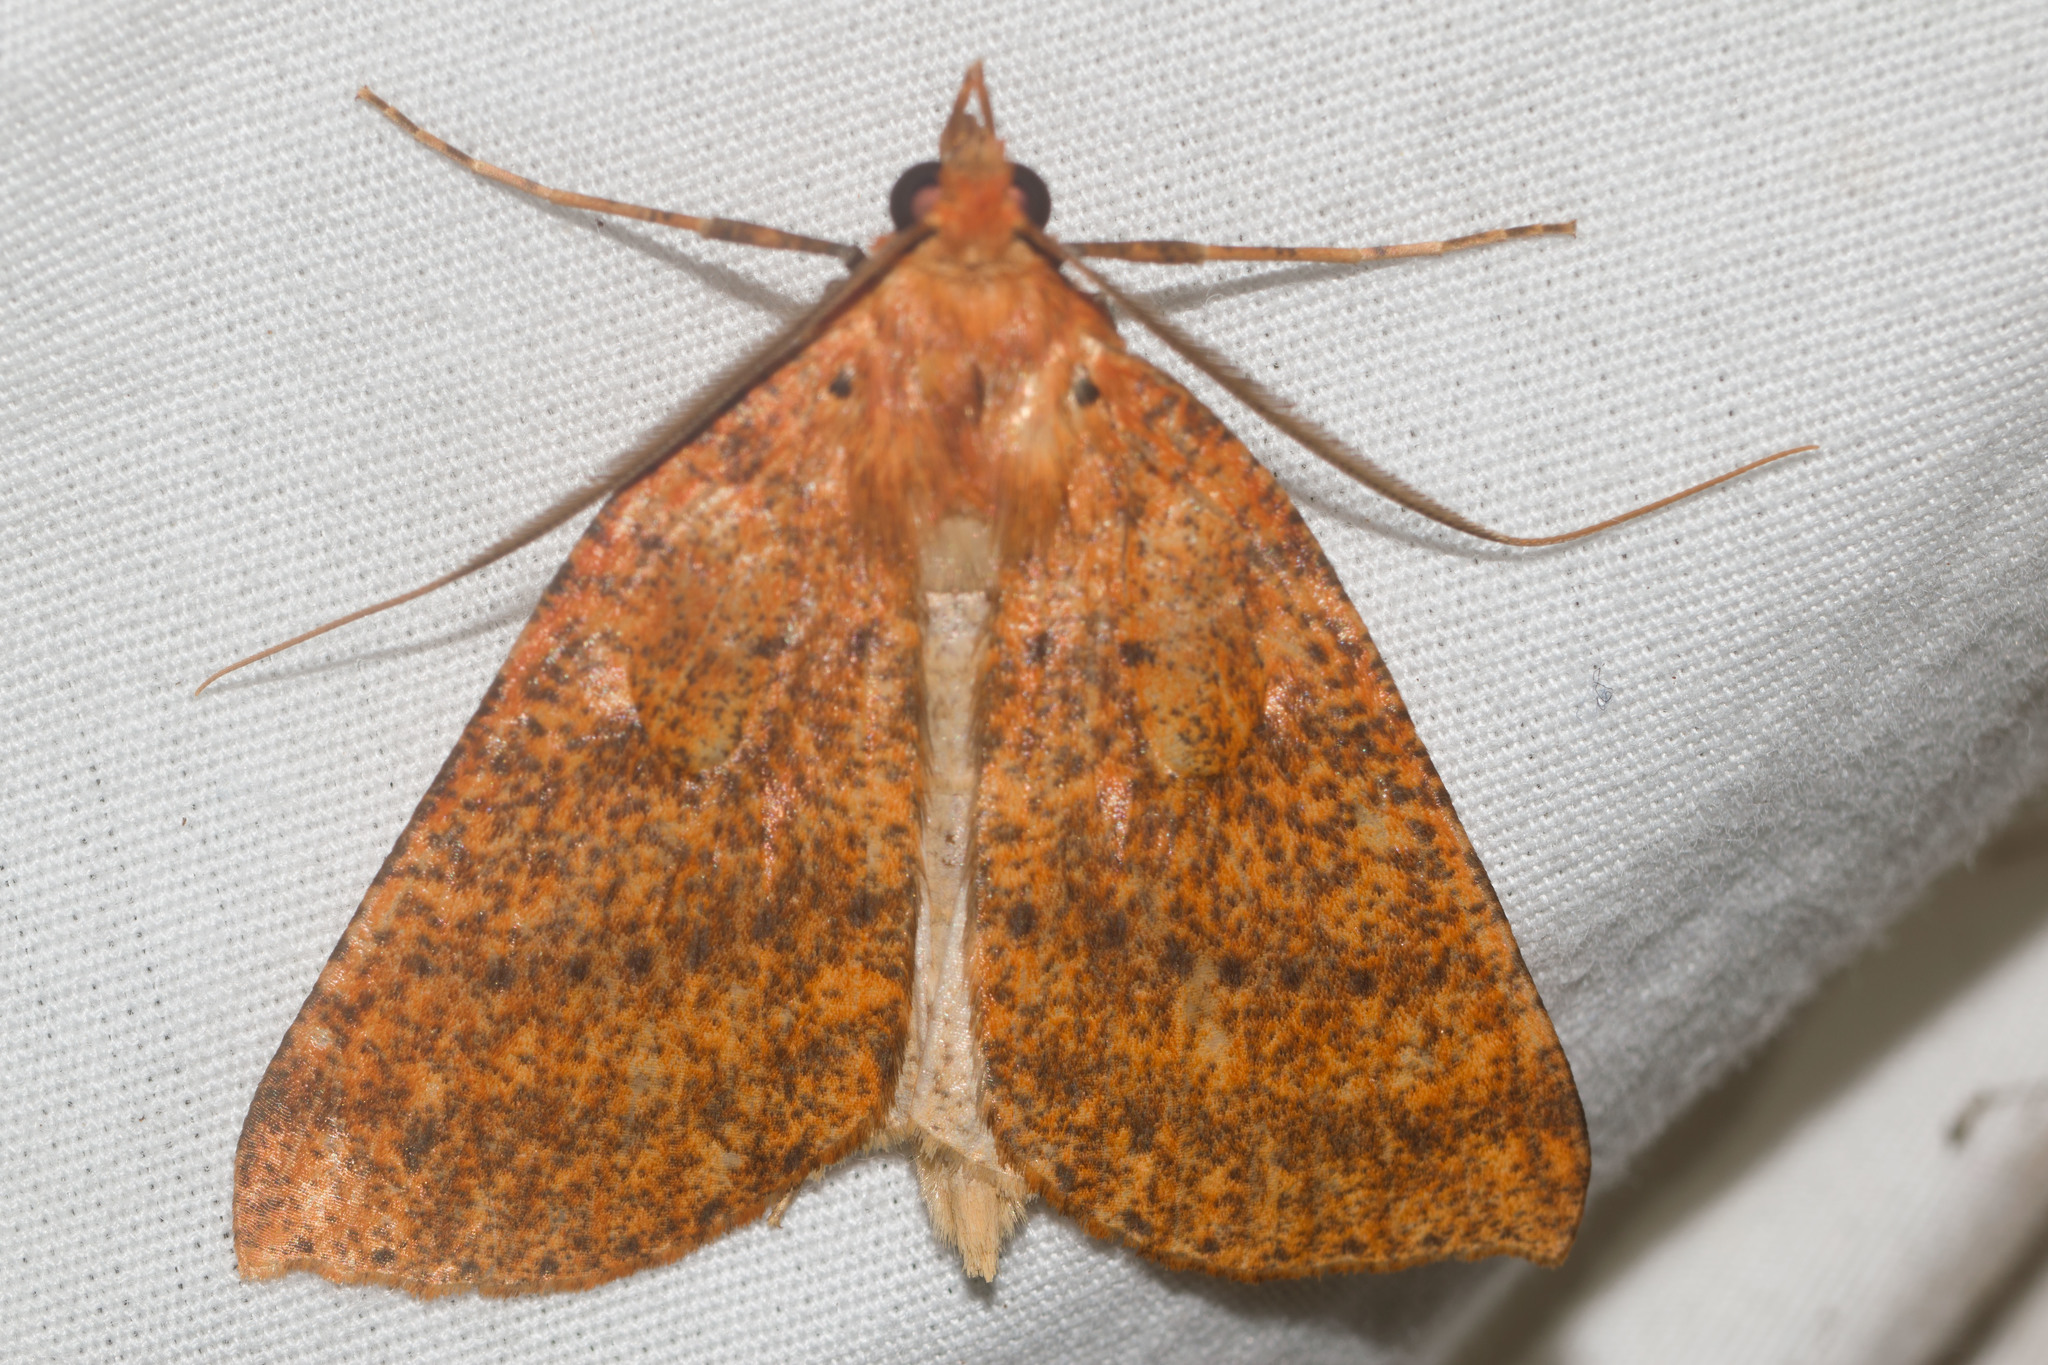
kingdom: Animalia
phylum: Arthropoda
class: Insecta
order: Lepidoptera
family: Geometridae
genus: Scotorythra
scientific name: Scotorythra epixantha
